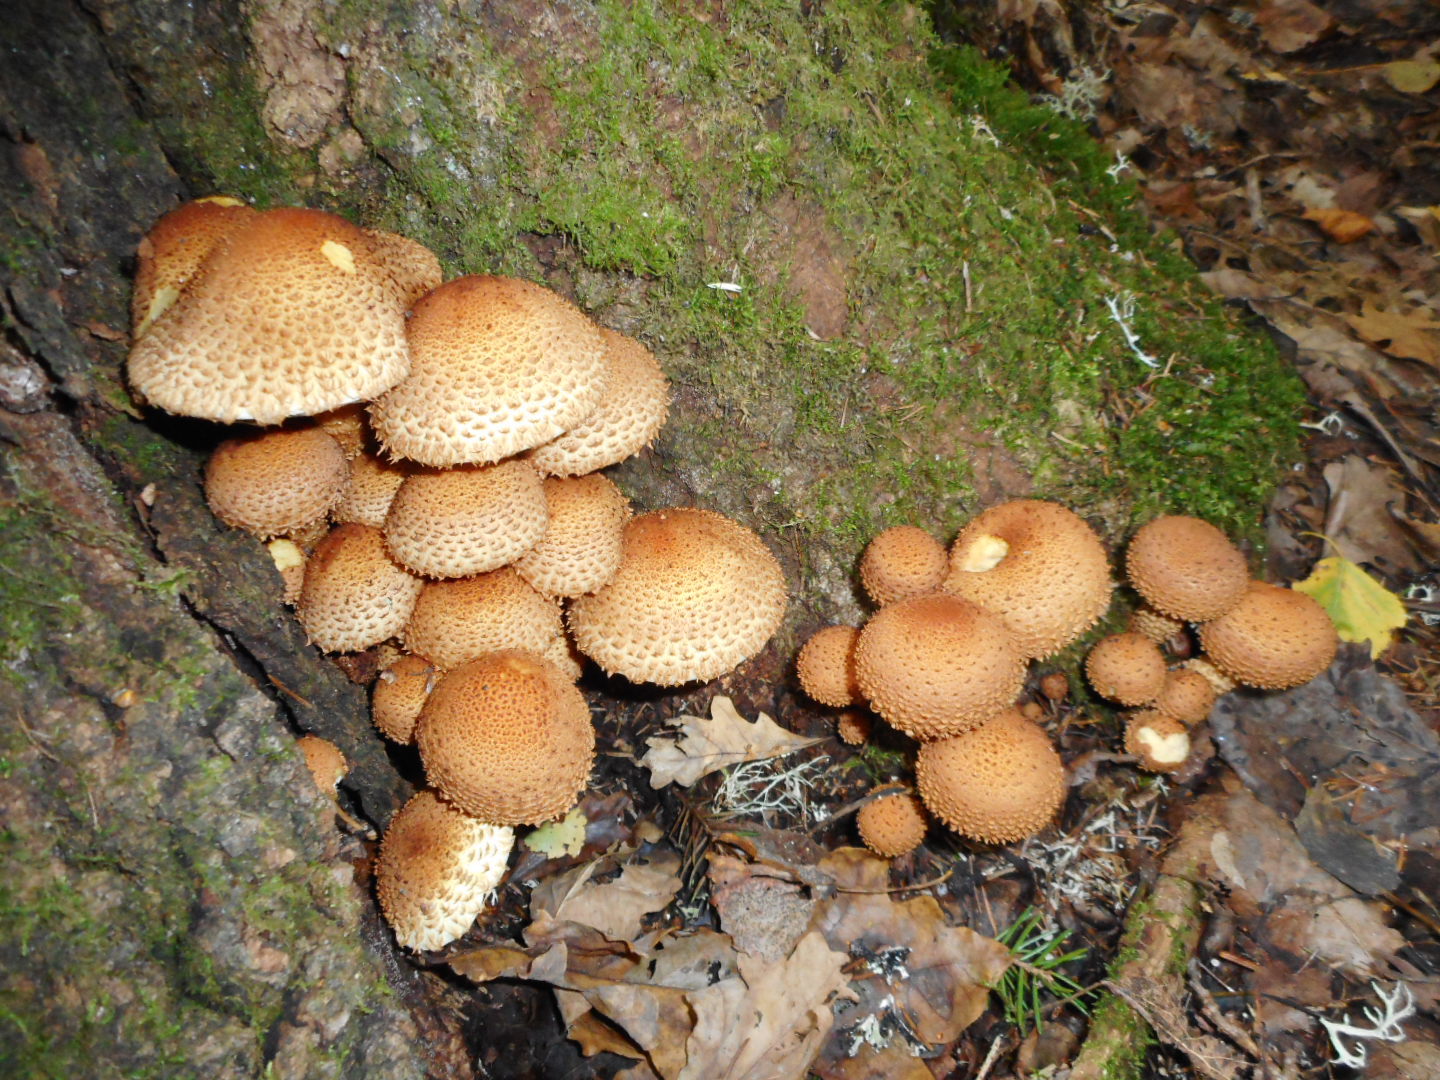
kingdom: Fungi
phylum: Basidiomycota
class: Agaricomycetes
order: Agaricales
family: Strophariaceae
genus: Pholiota
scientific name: Pholiota squarrosa
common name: Shaggy pholiota
